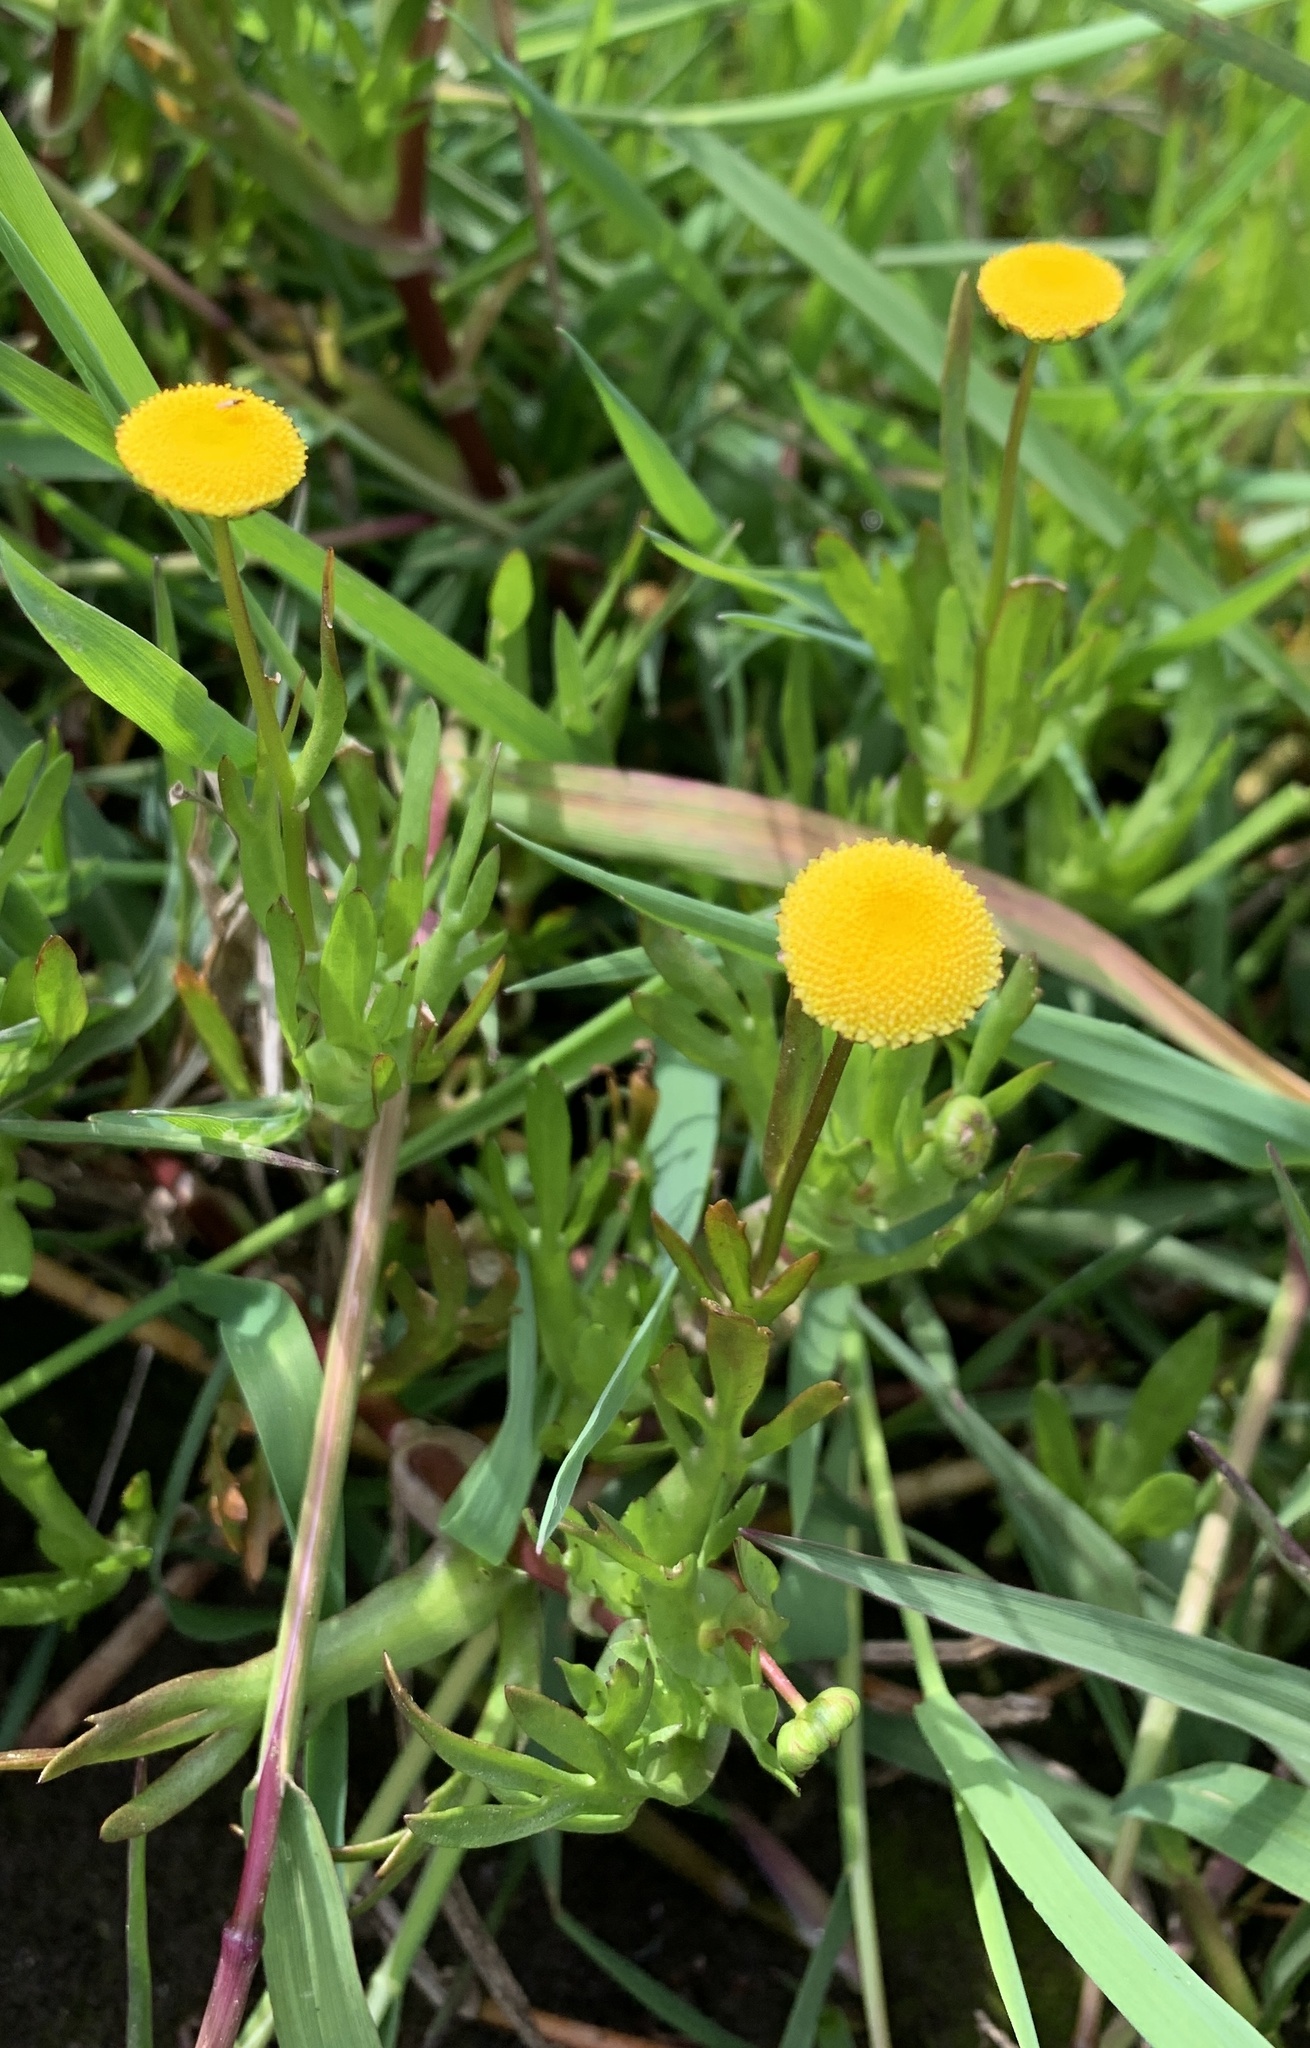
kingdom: Plantae
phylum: Tracheophyta
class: Magnoliopsida
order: Asterales
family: Asteraceae
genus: Cotula
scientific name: Cotula coronopifolia
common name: Buttonweed
